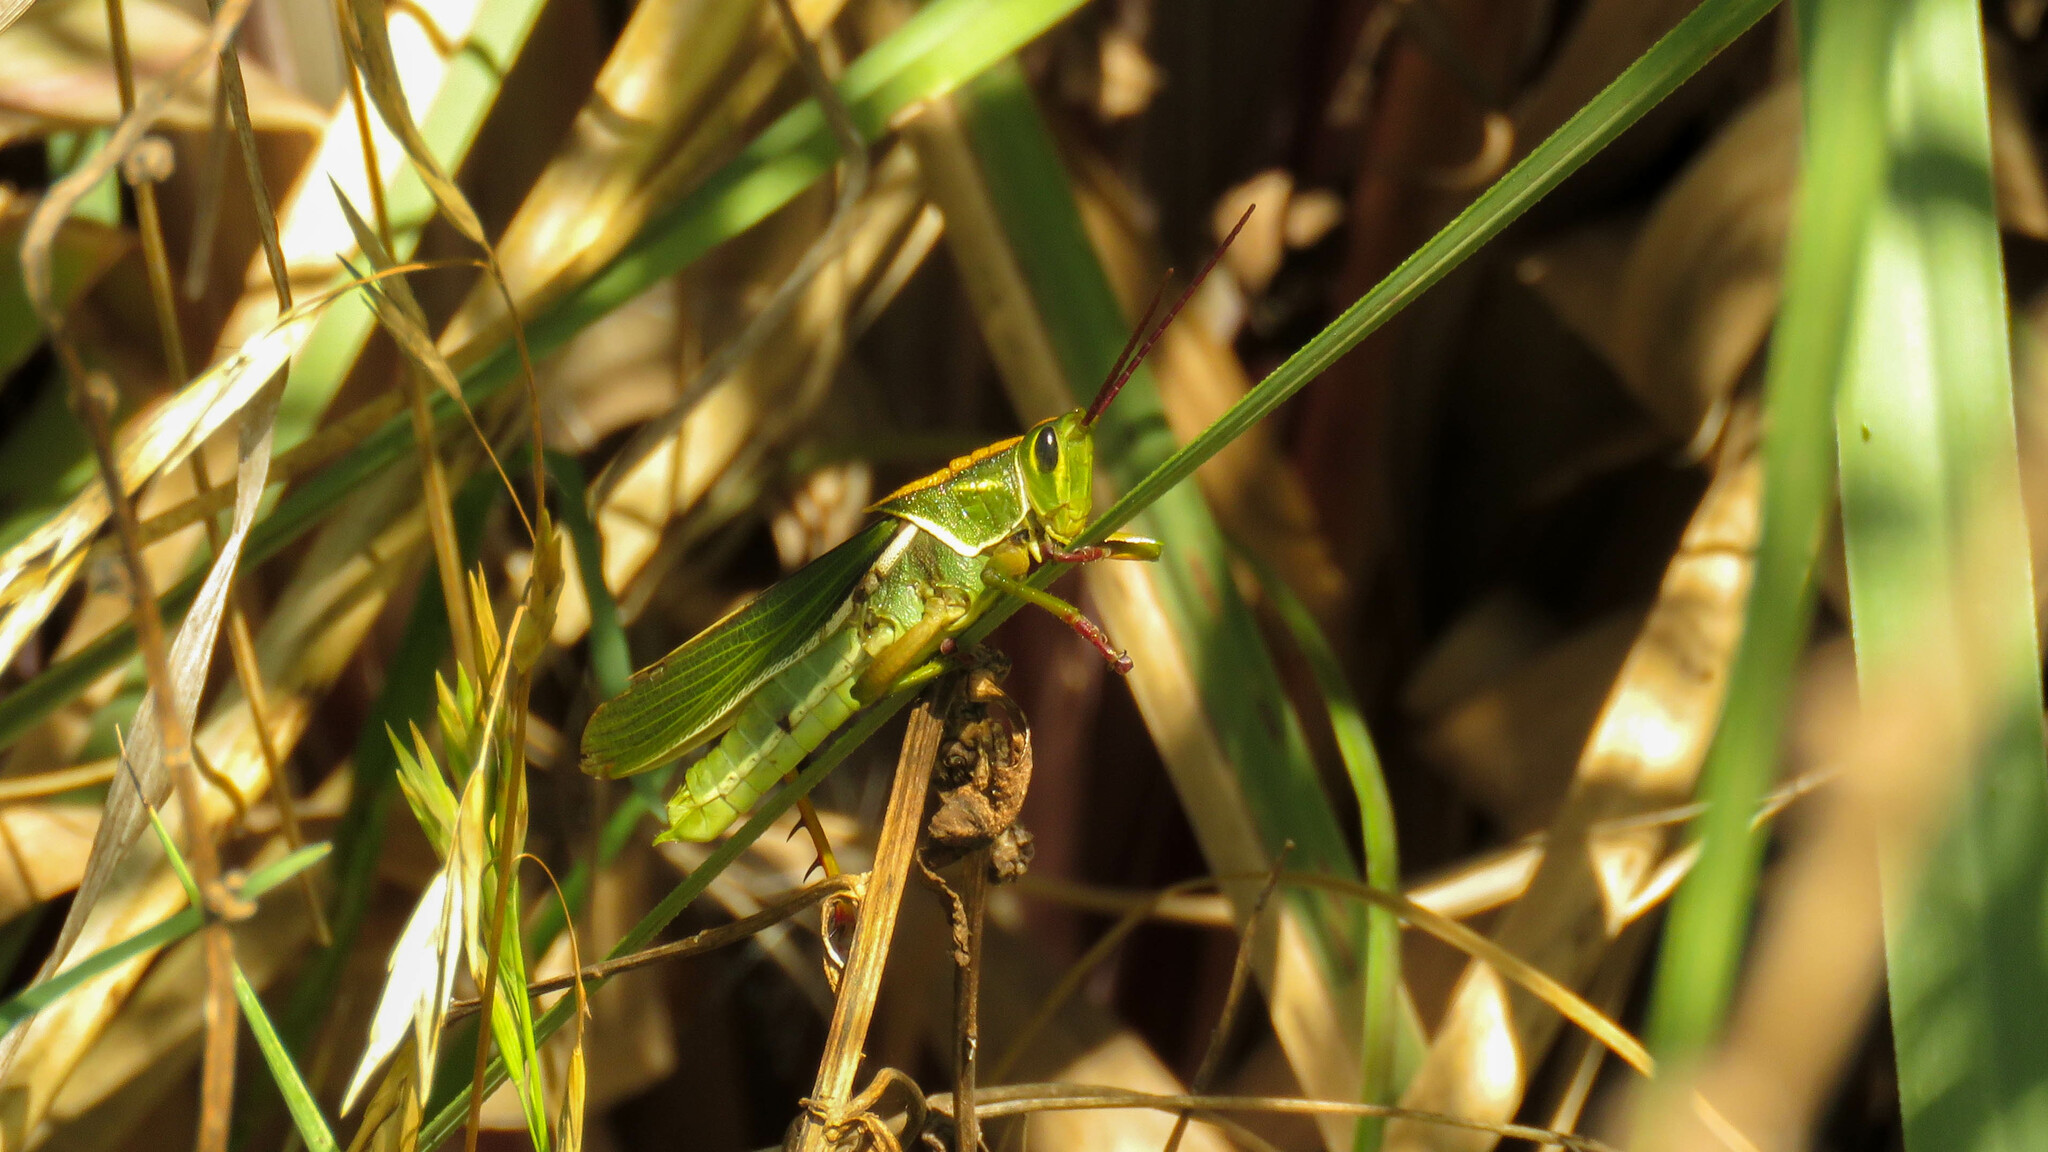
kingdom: Animalia
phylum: Arthropoda
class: Insecta
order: Orthoptera
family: Romaleidae
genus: Staleochlora
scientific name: Staleochlora viridicata
